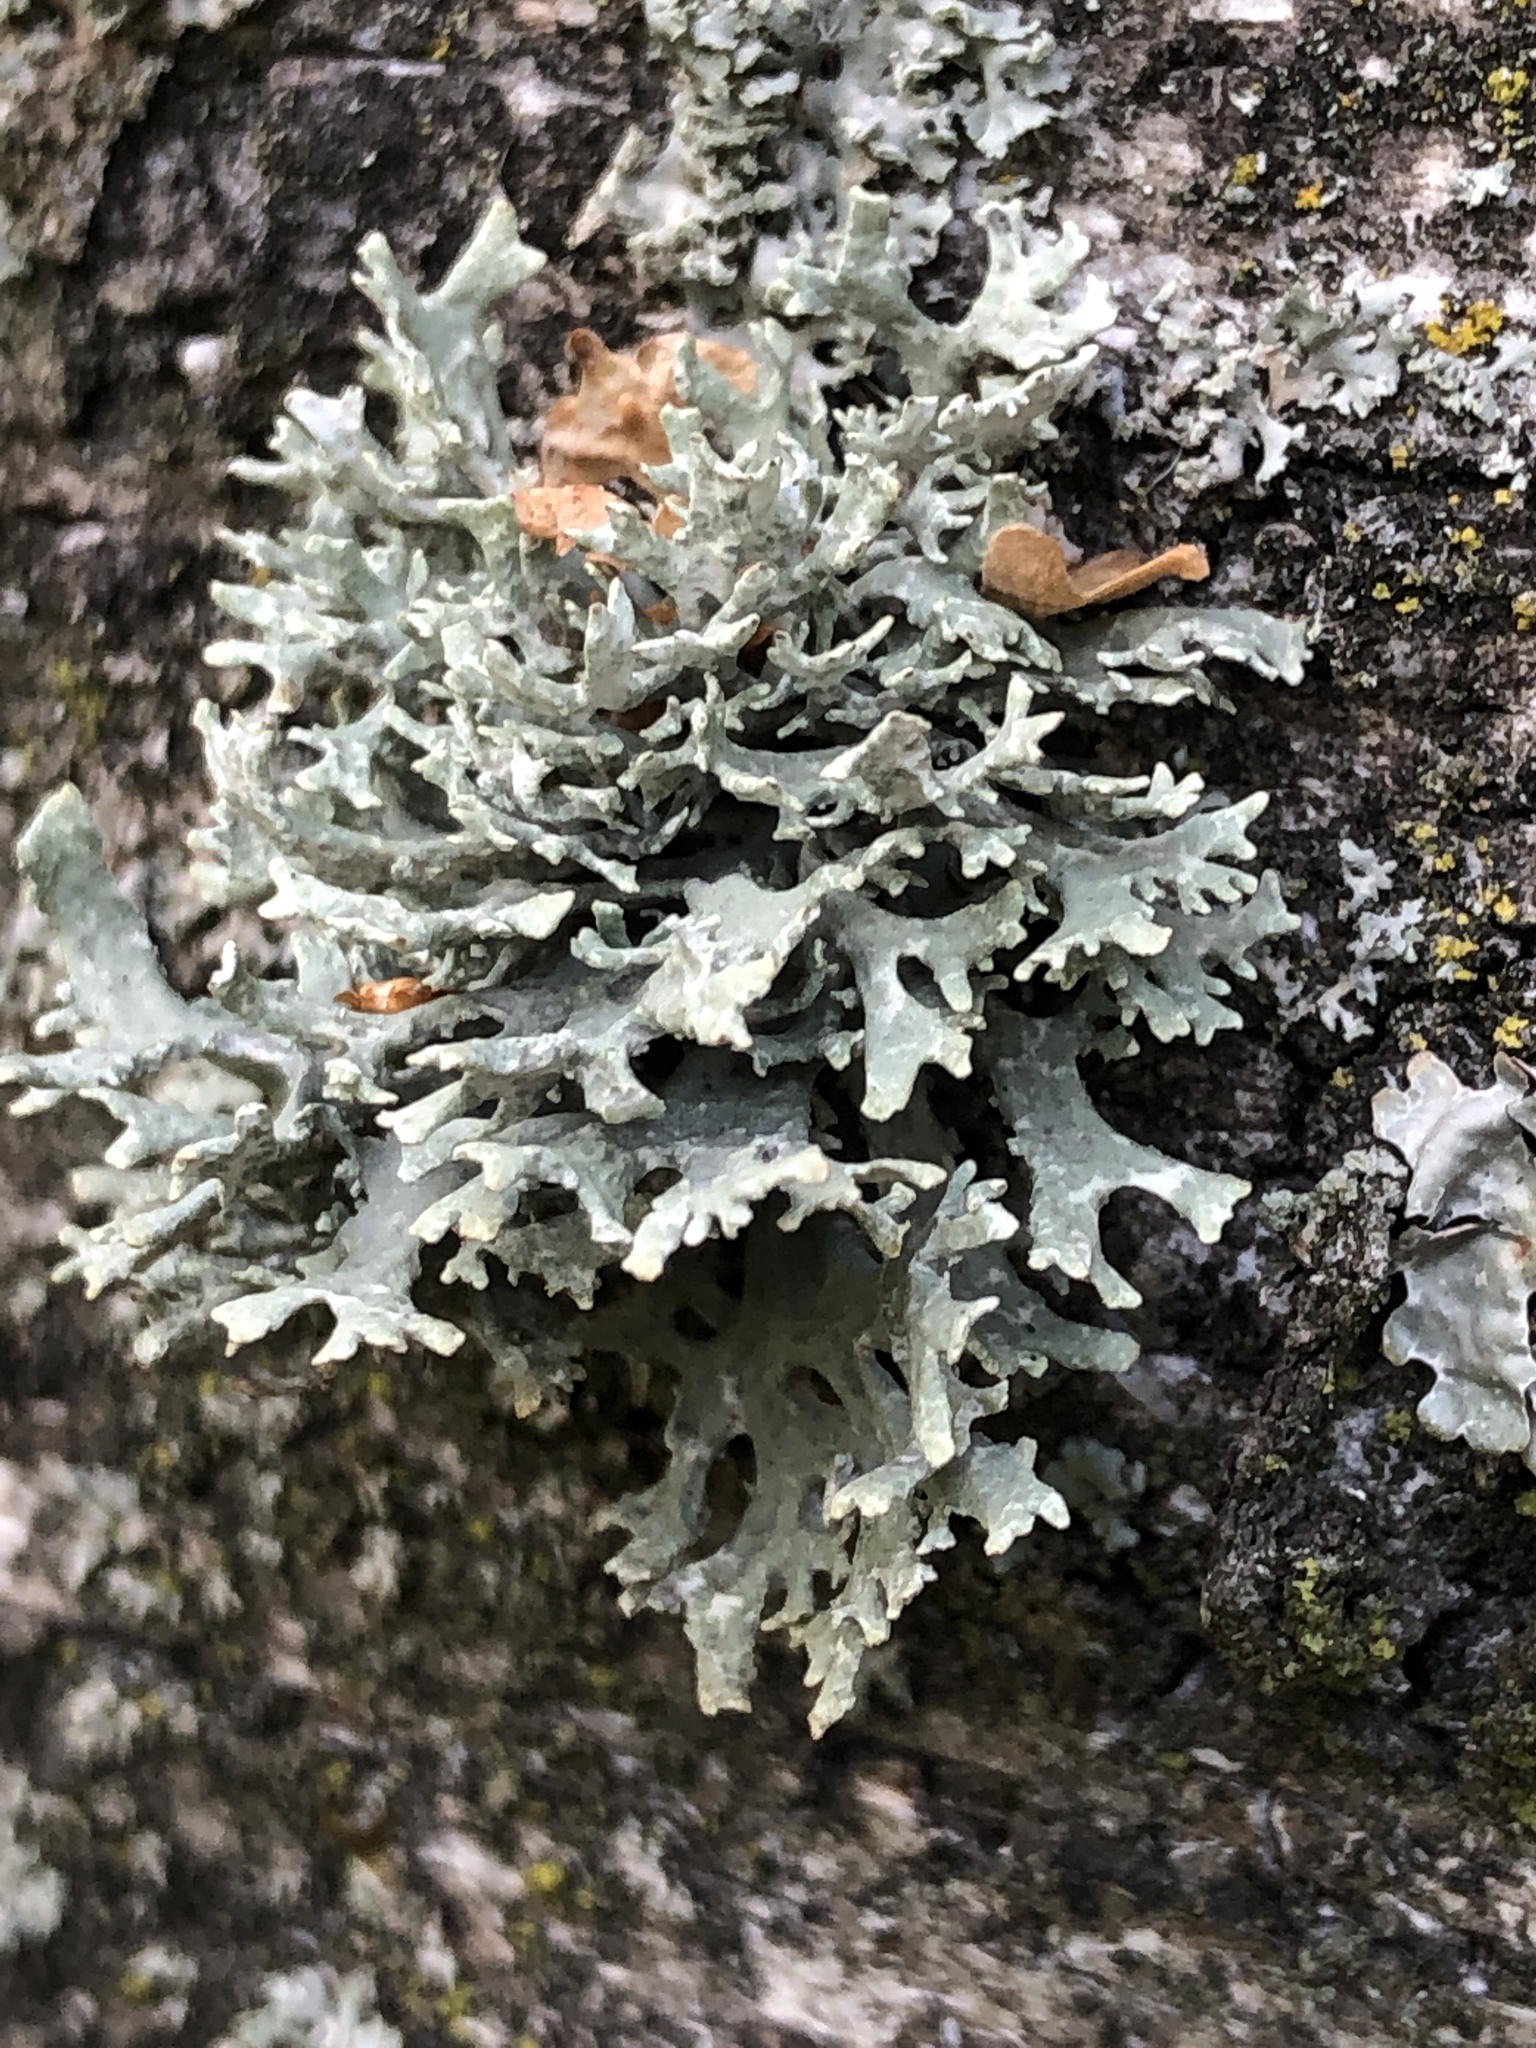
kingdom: Fungi
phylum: Ascomycota
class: Lecanoromycetes
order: Lecanorales
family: Parmeliaceae
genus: Evernia
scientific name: Evernia prunastri
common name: Oak moss
